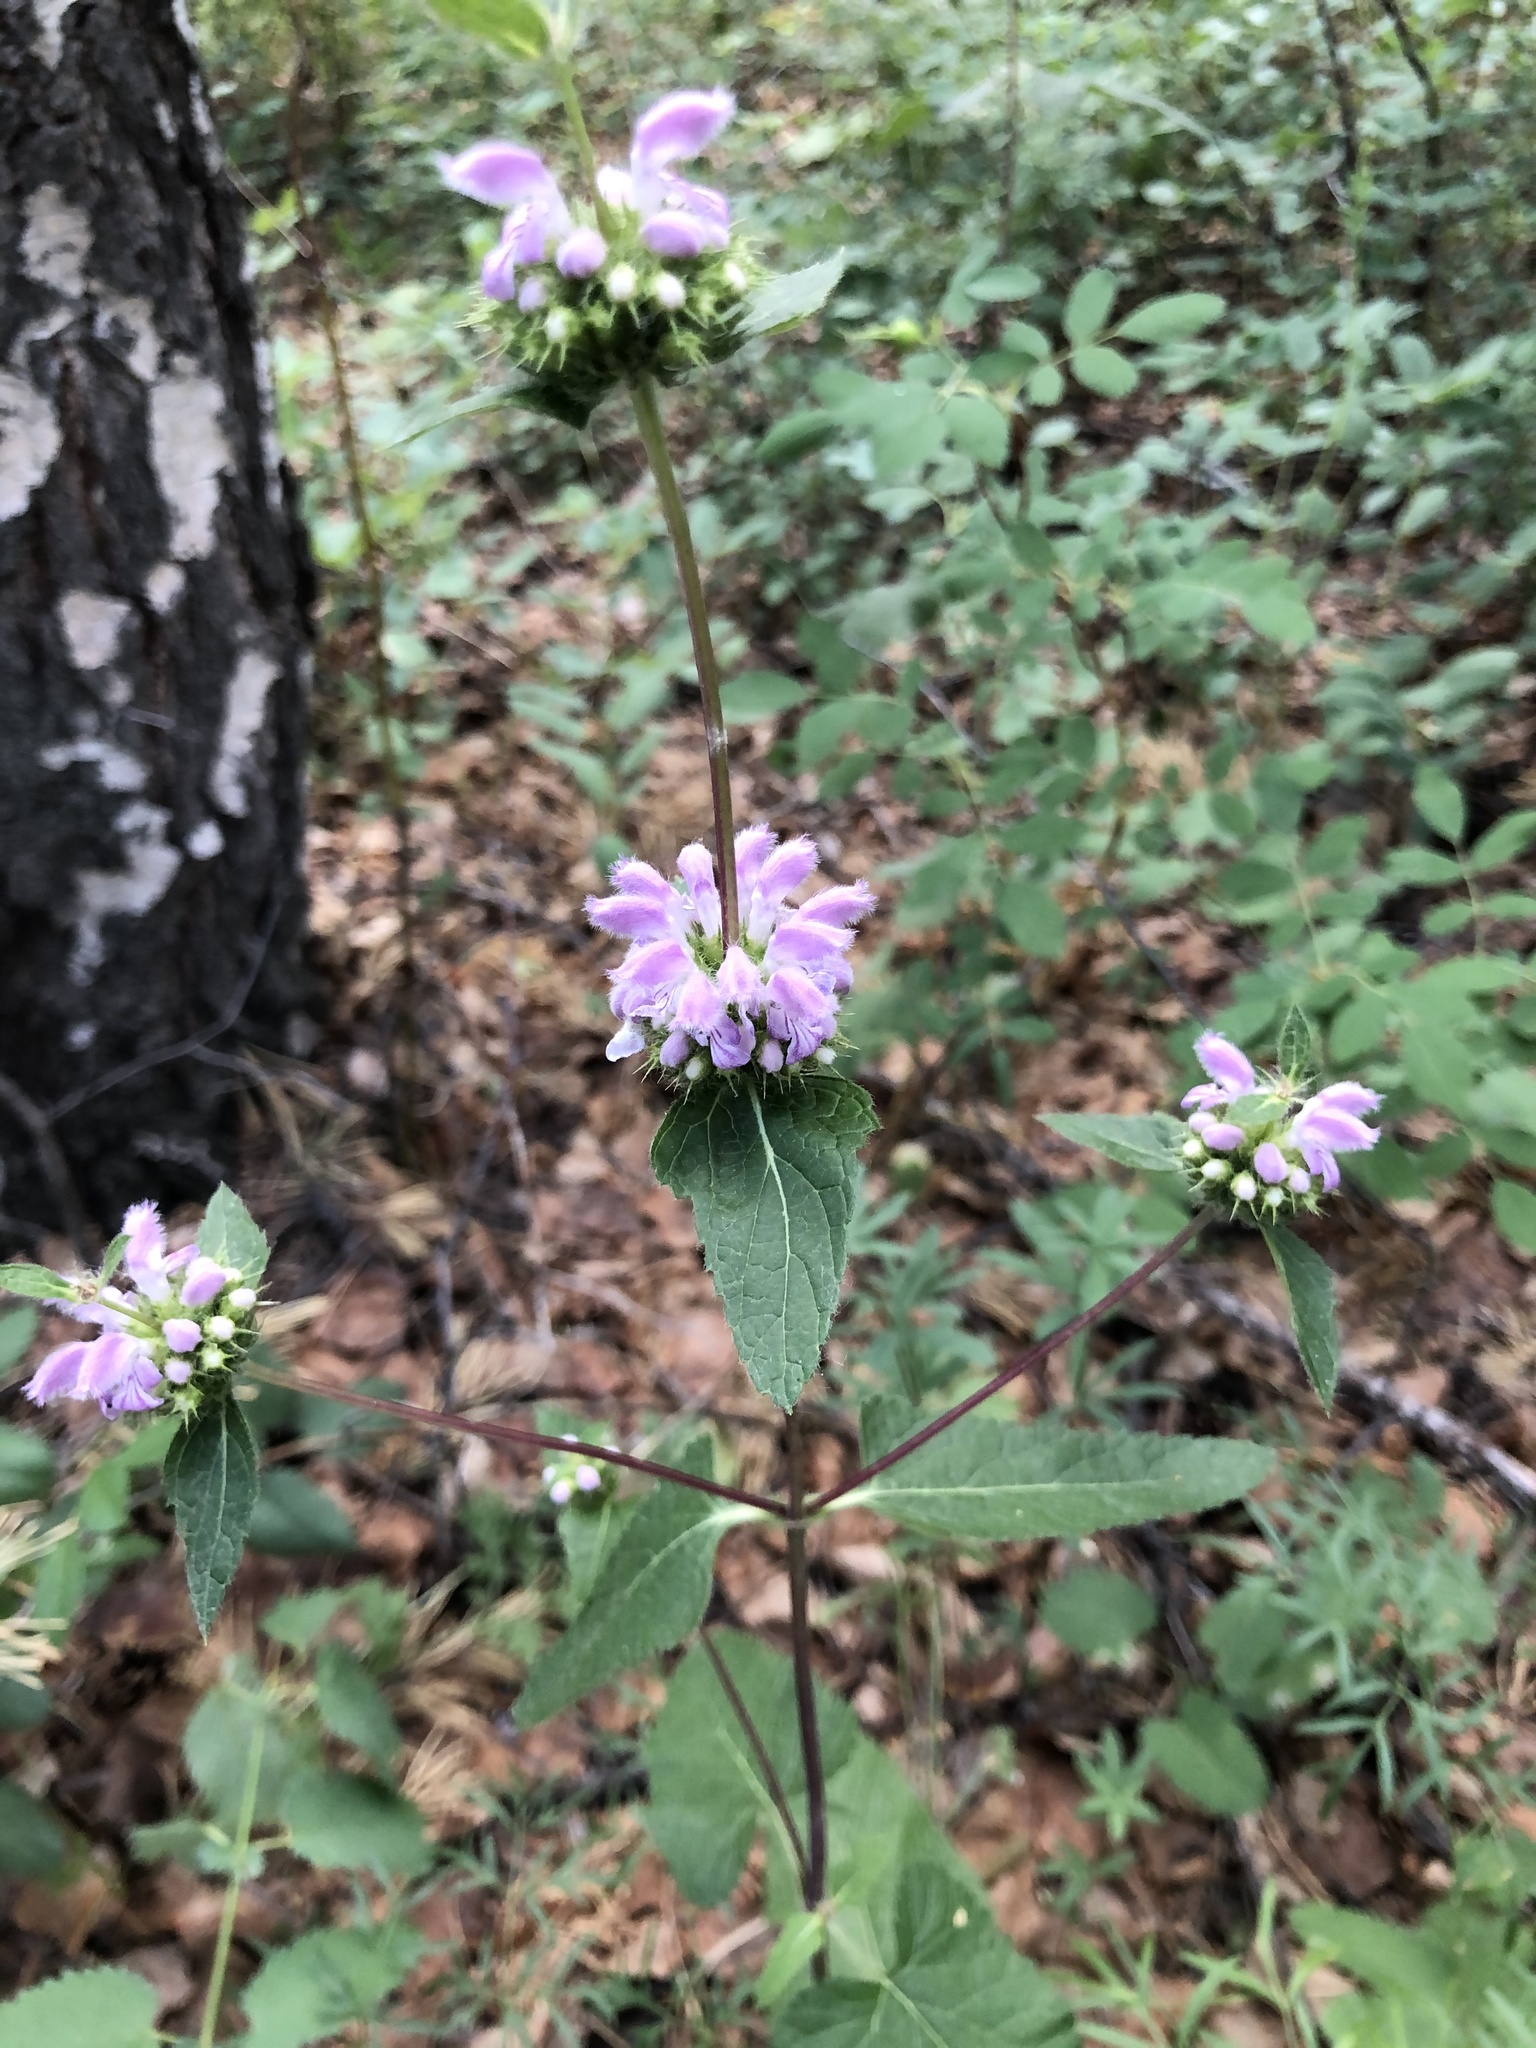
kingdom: Plantae
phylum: Tracheophyta
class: Magnoliopsida
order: Lamiales
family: Lamiaceae
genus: Phlomoides
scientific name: Phlomoides tuberosa
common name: Tuberous jerusalem sage
